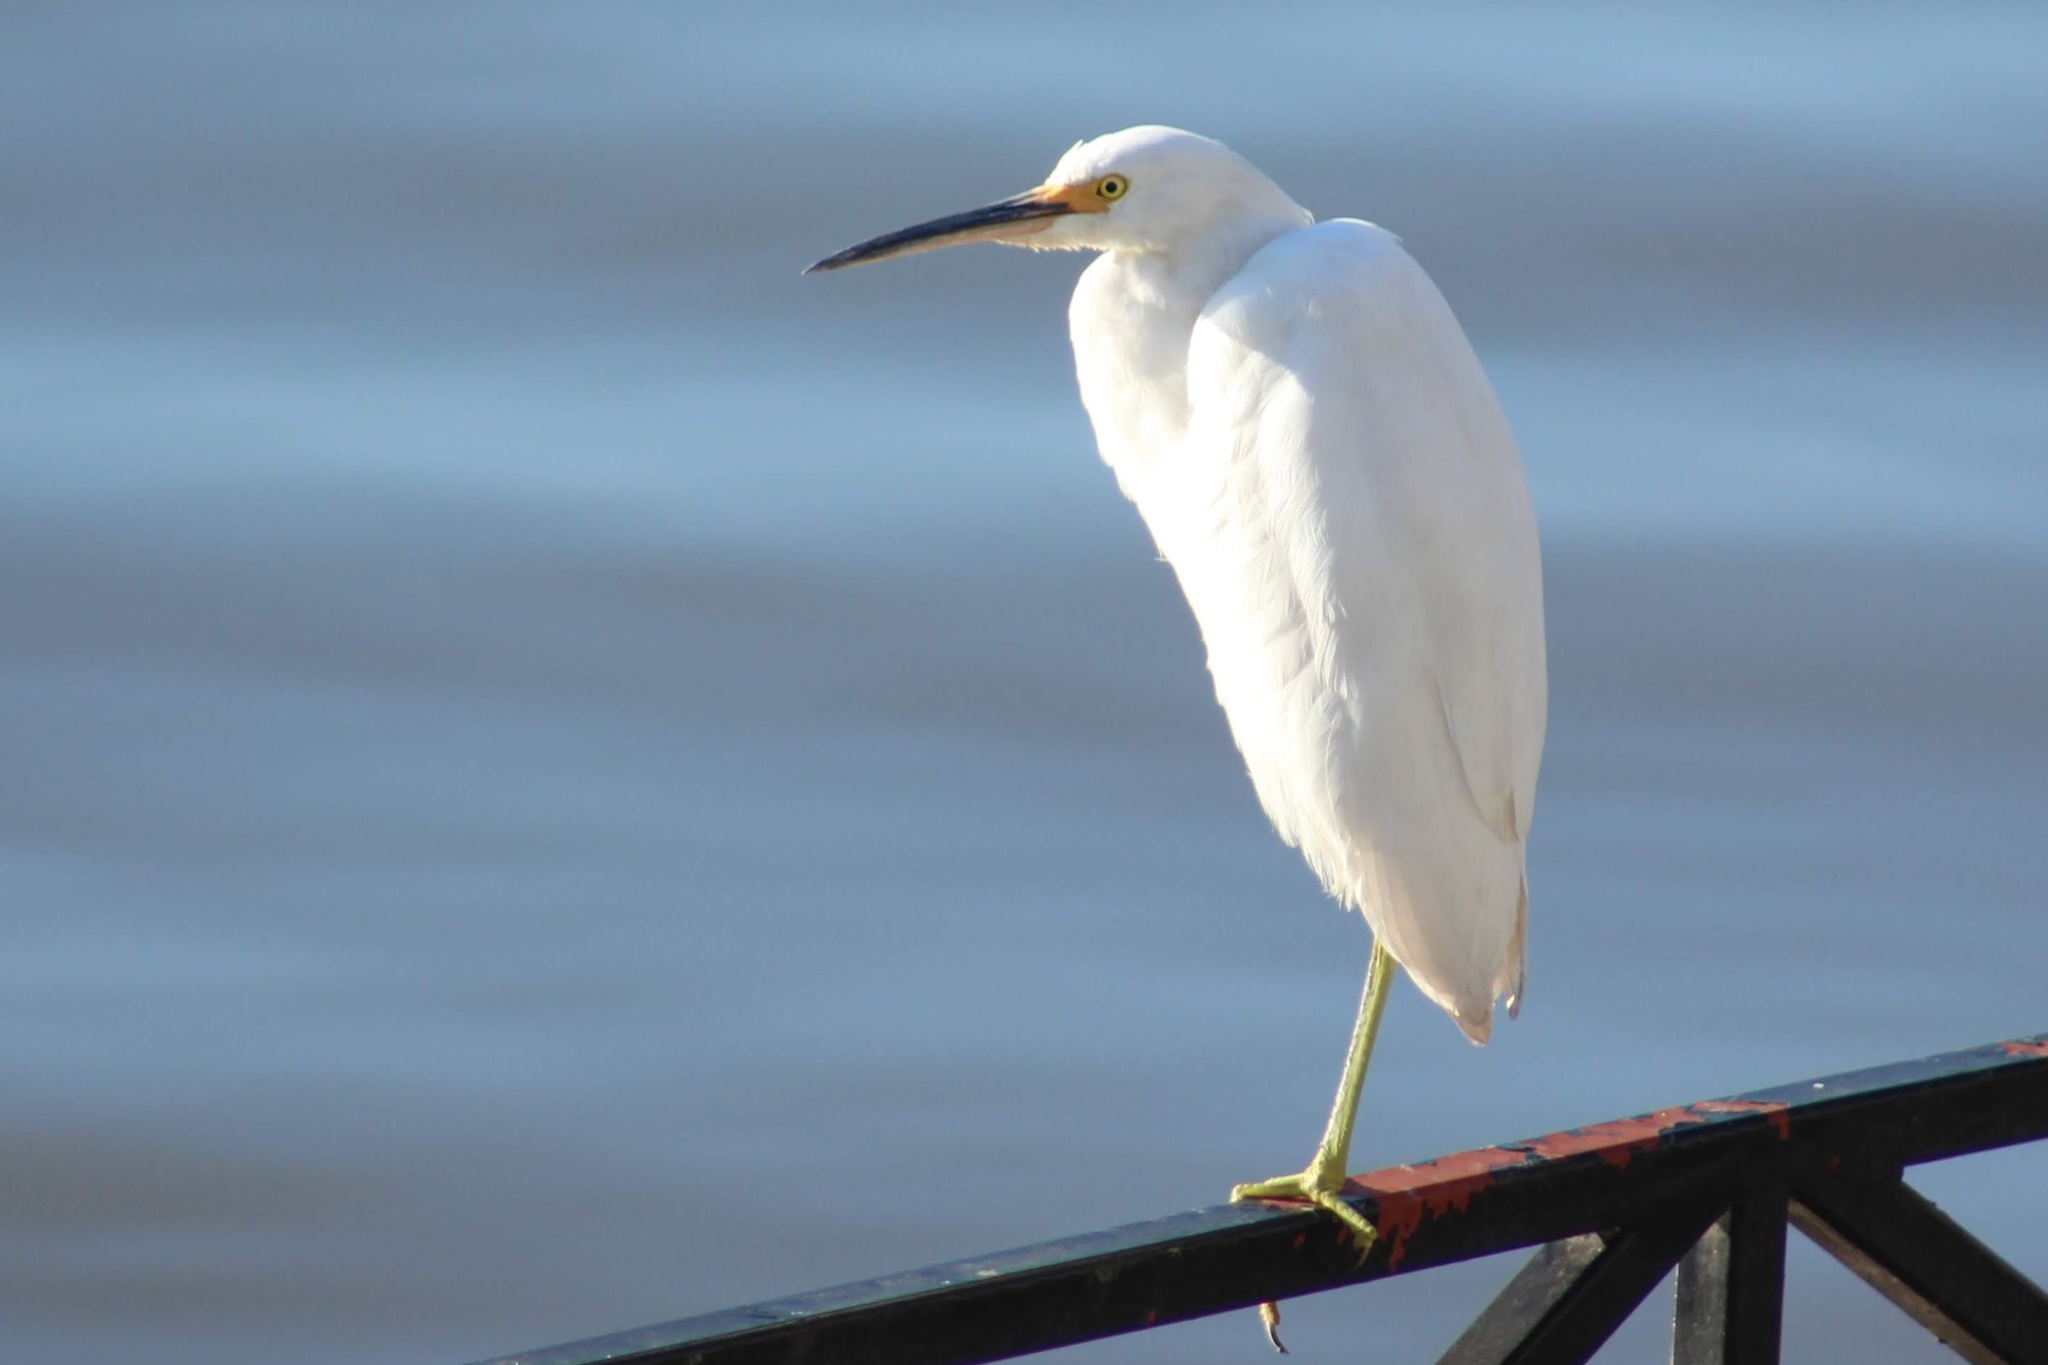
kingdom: Animalia
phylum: Chordata
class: Aves
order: Pelecaniformes
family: Ardeidae
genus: Egretta
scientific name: Egretta thula
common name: Snowy egret
